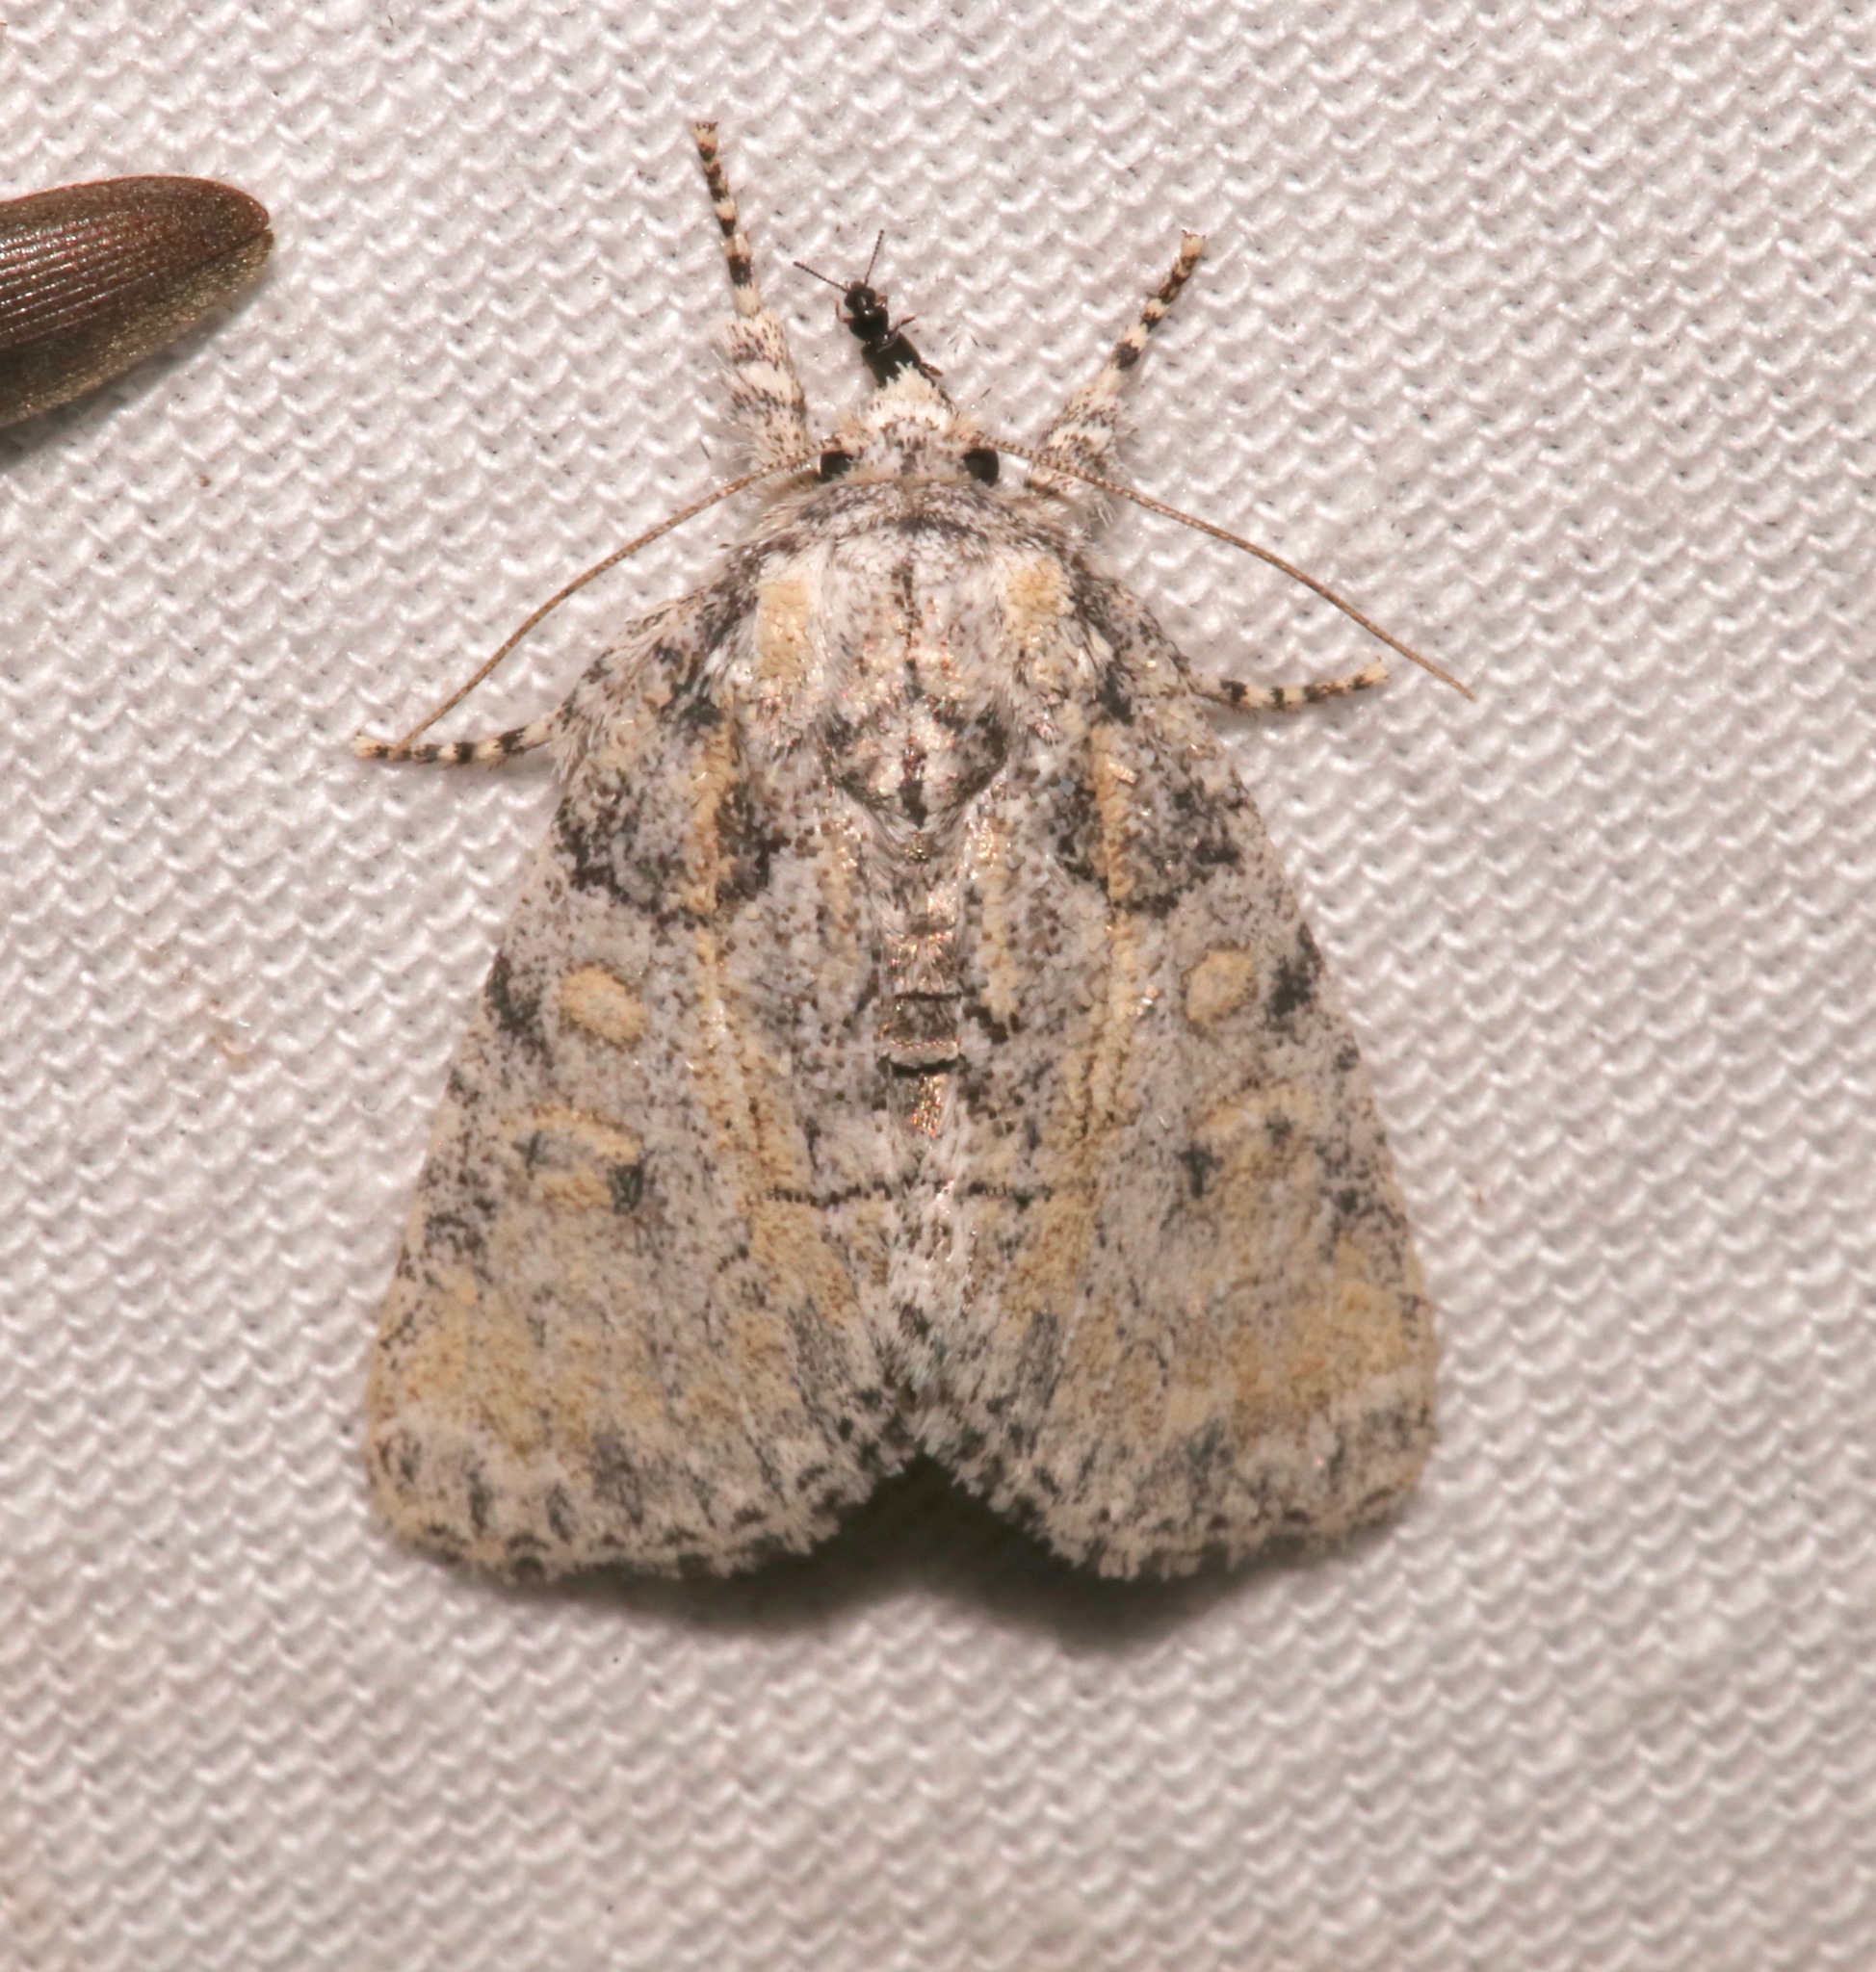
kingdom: Animalia
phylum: Arthropoda
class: Insecta
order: Lepidoptera
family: Noctuidae
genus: Raphia
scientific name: Raphia frater
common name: Brother
